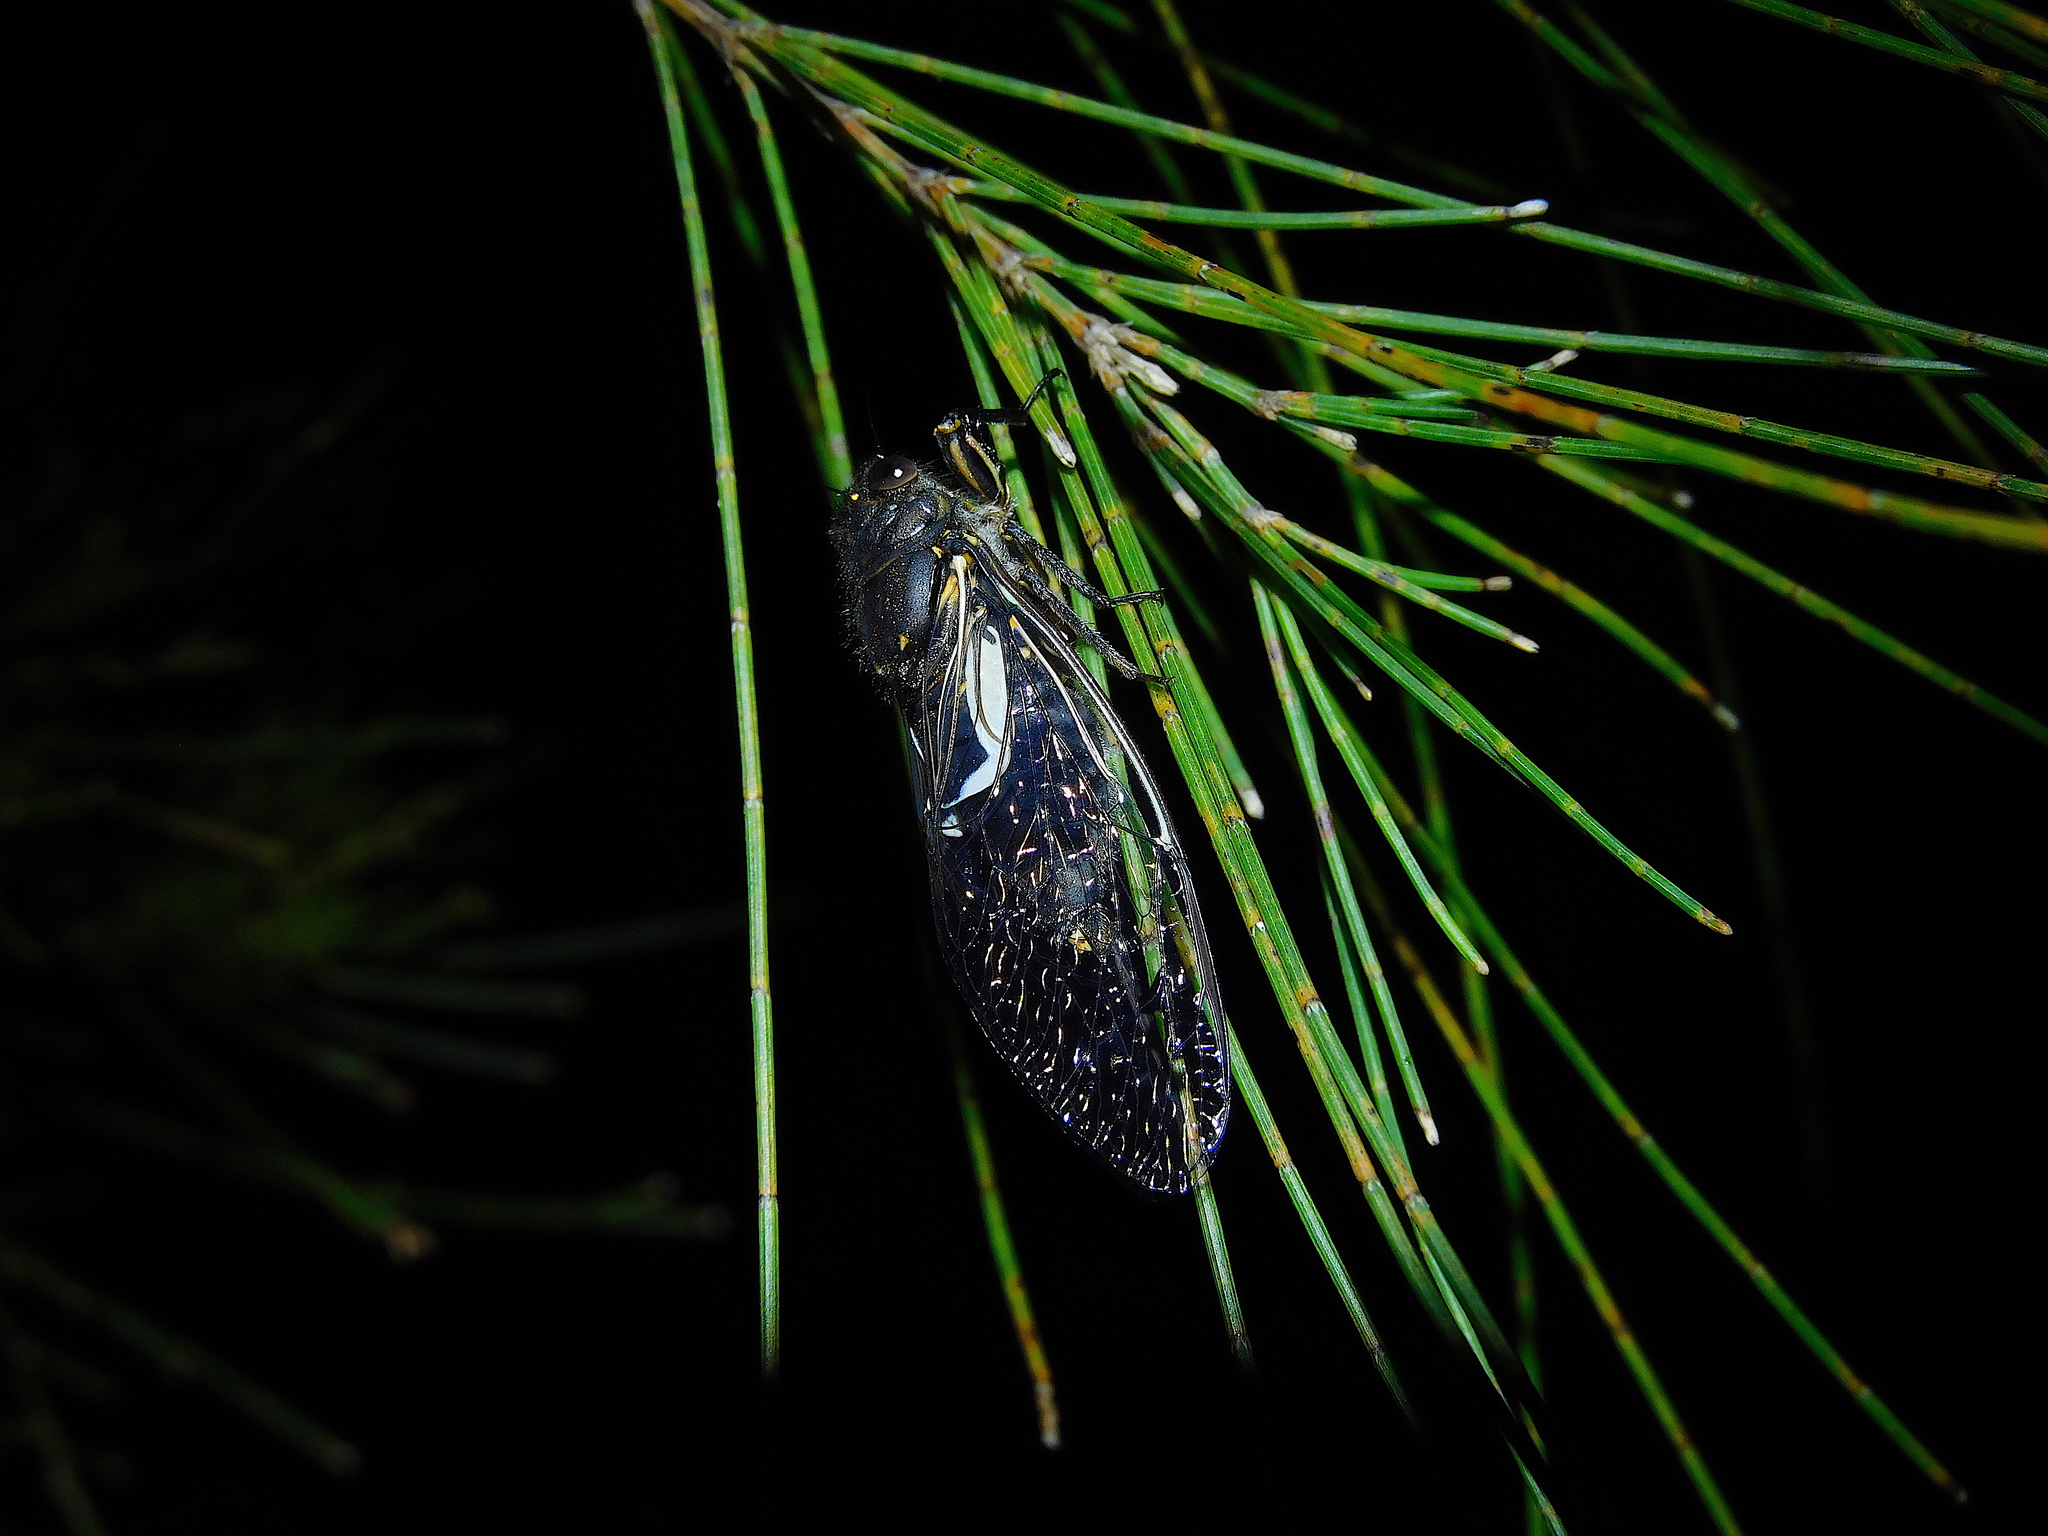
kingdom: Animalia
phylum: Arthropoda
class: Insecta
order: Hemiptera
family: Cicadidae
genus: Gelidea
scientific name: Gelidea torrida
